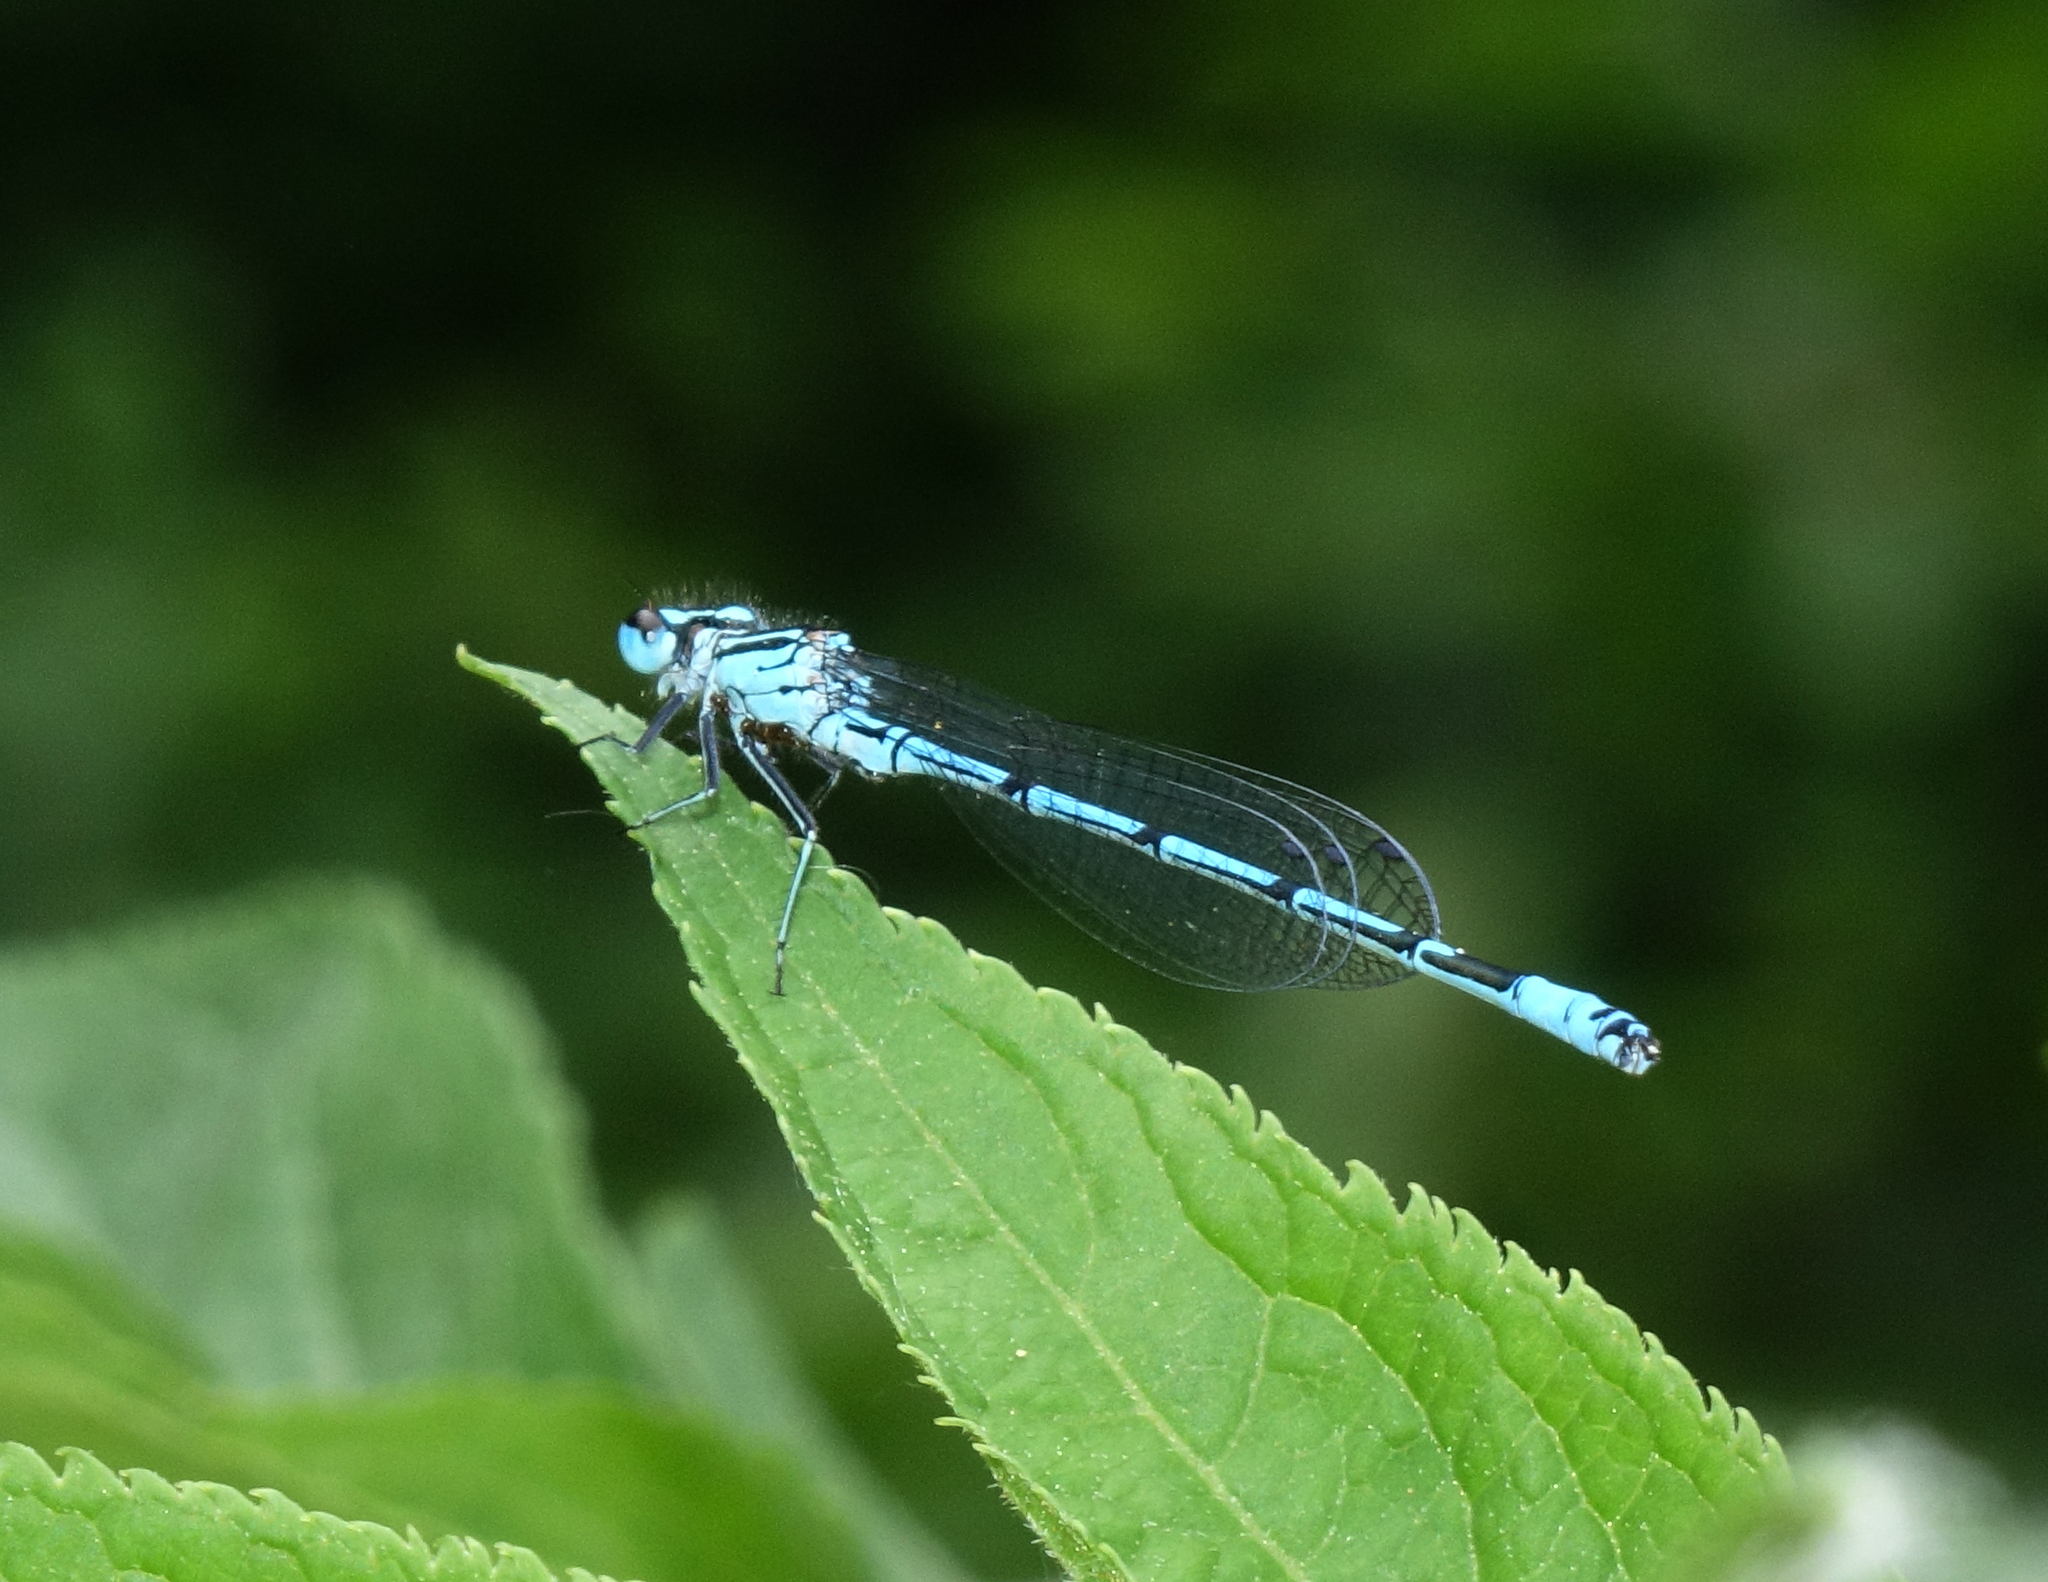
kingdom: Animalia
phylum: Arthropoda
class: Insecta
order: Odonata
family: Coenagrionidae
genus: Coenagrion
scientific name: Coenagrion puella
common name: Azure damselfly
